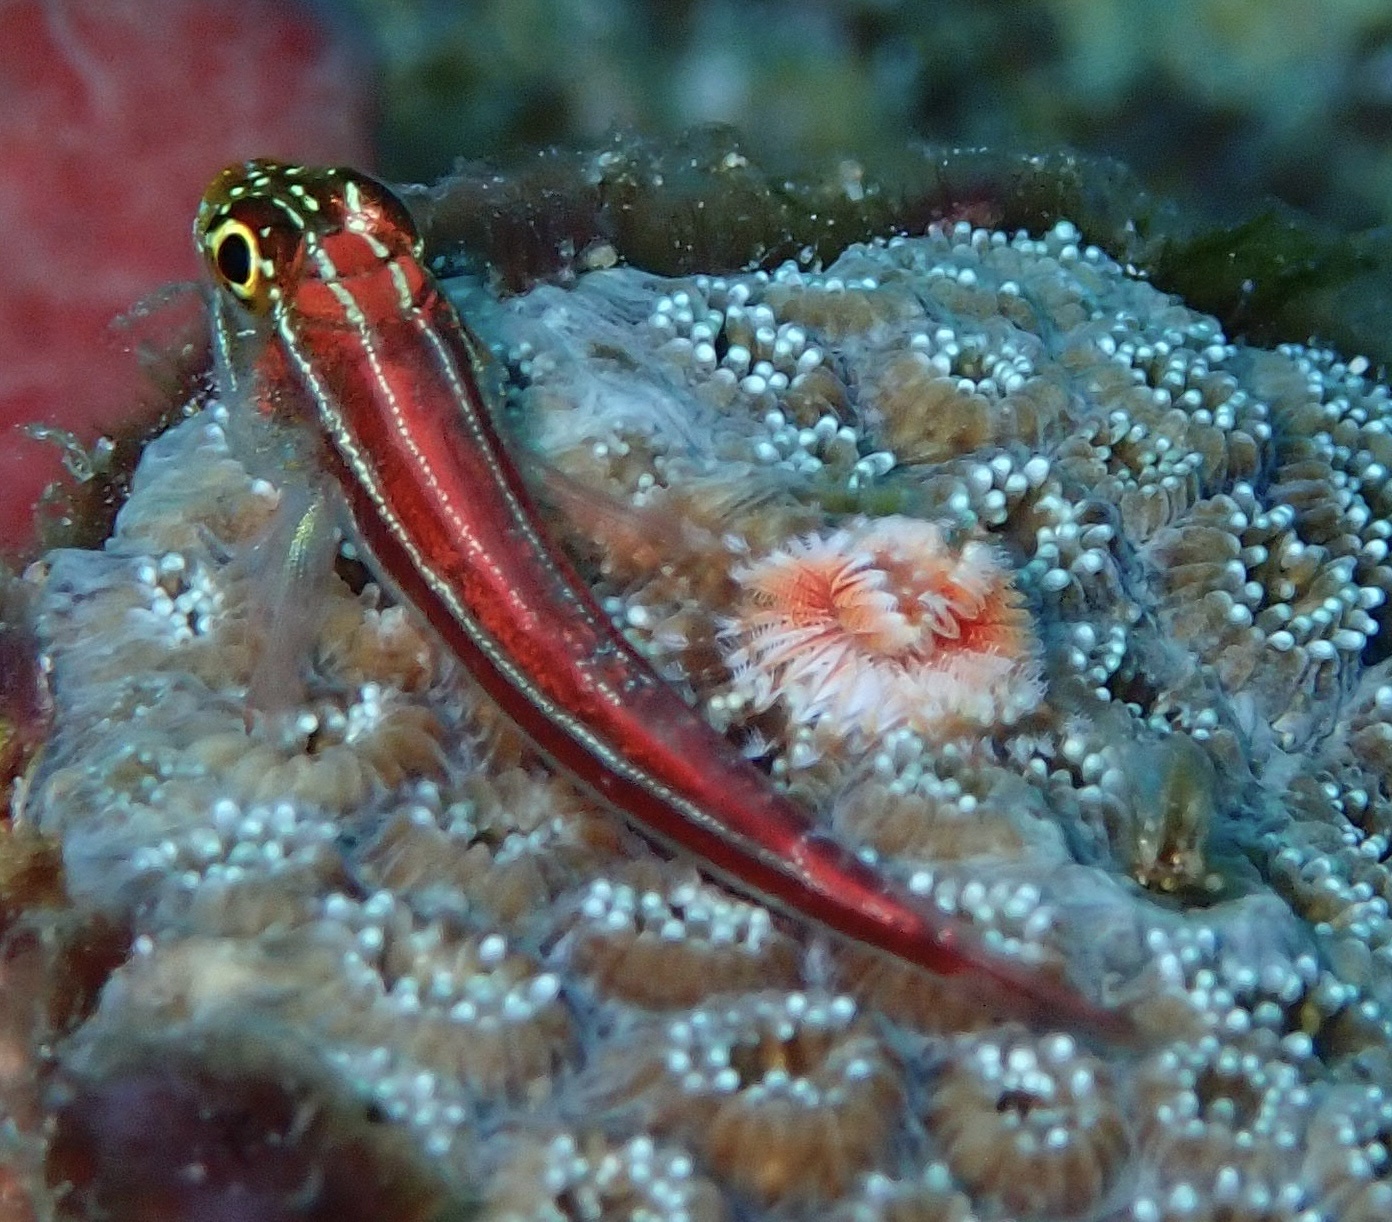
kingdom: Animalia
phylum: Chordata
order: Perciformes
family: Tripterygiidae
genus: Helcogramma
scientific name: Helcogramma striata
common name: Striped threefin
